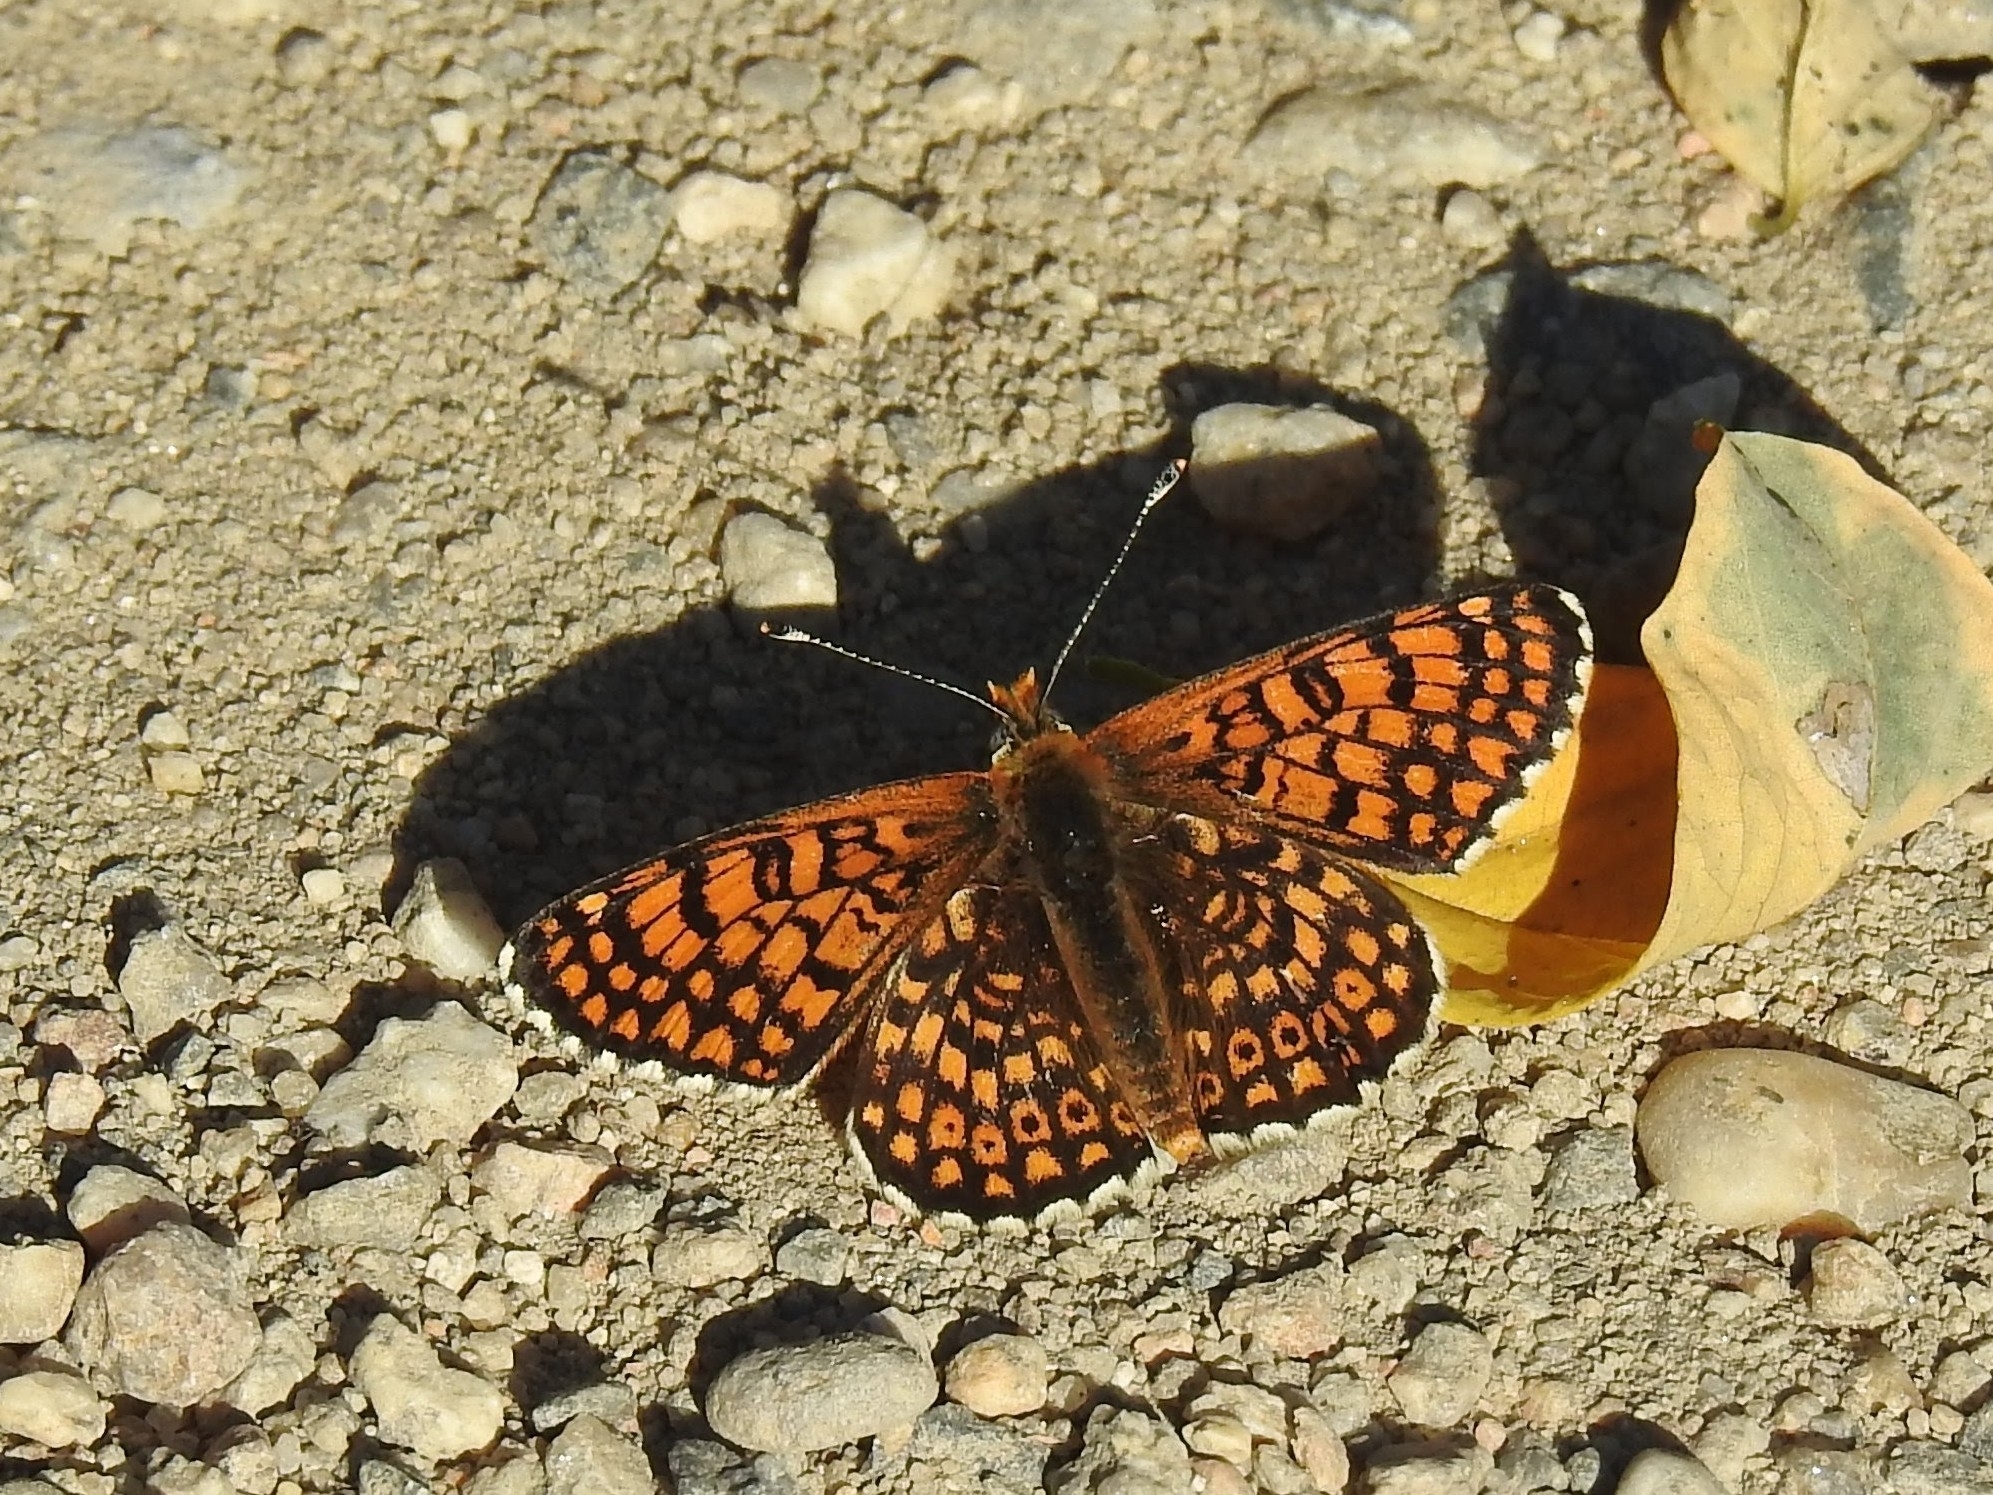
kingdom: Animalia
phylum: Arthropoda
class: Insecta
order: Lepidoptera
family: Nymphalidae
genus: Melitaea
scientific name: Melitaea cinxia
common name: Glanville fritillary
